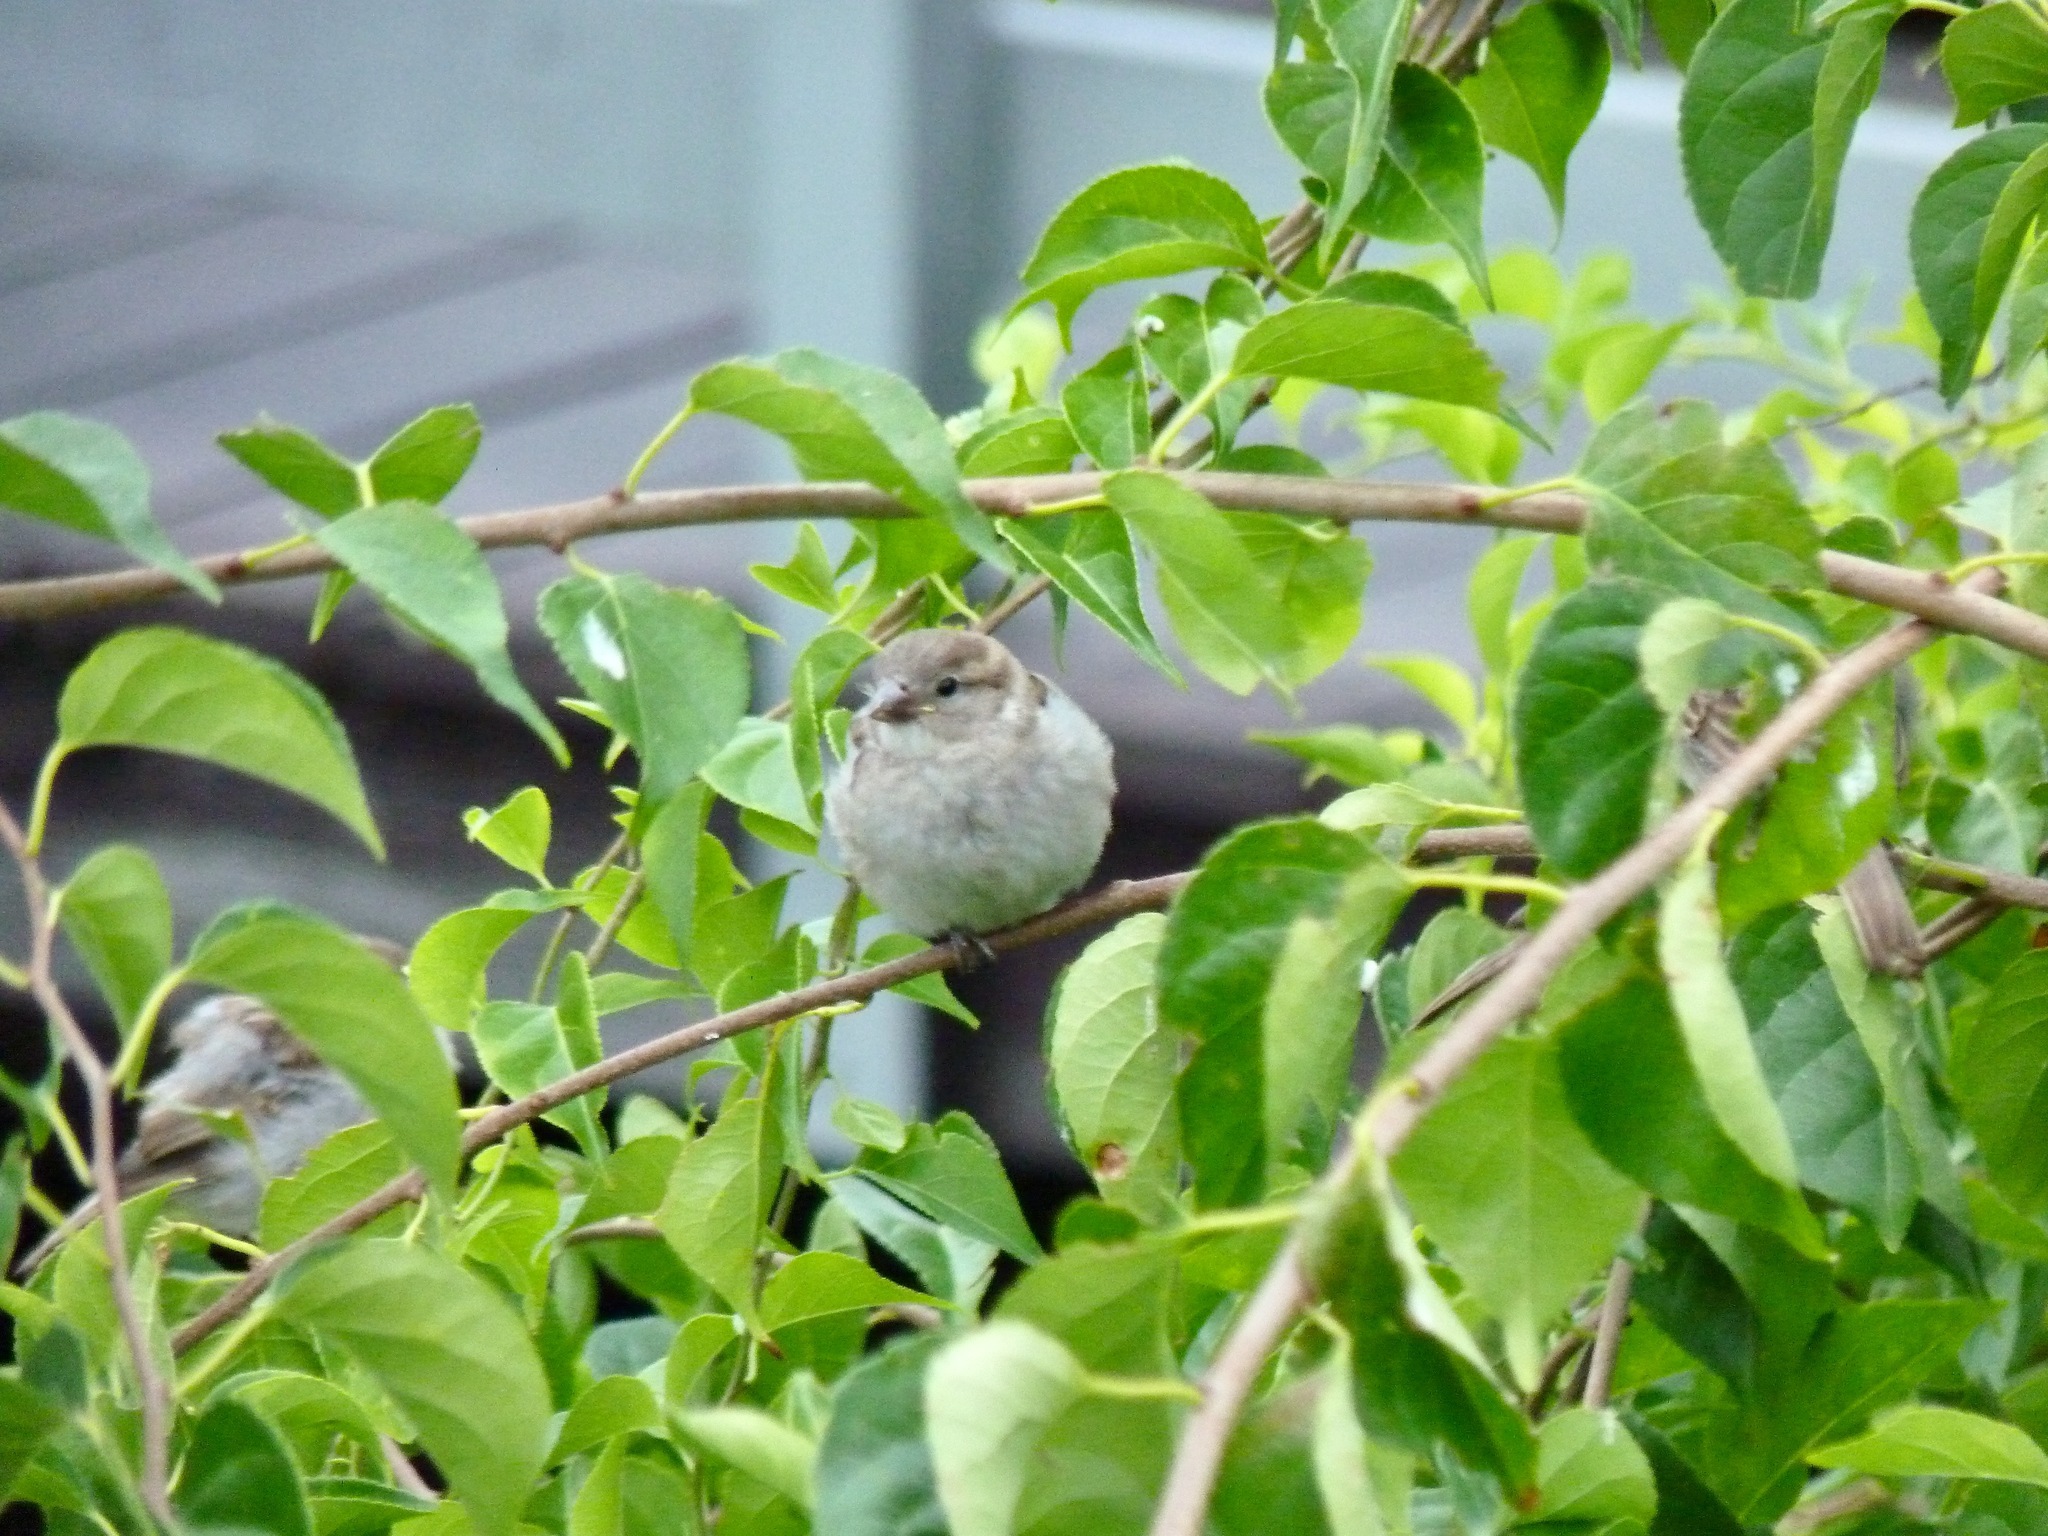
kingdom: Animalia
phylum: Chordata
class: Aves
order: Passeriformes
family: Passeridae
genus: Passer
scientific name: Passer domesticus
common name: House sparrow
